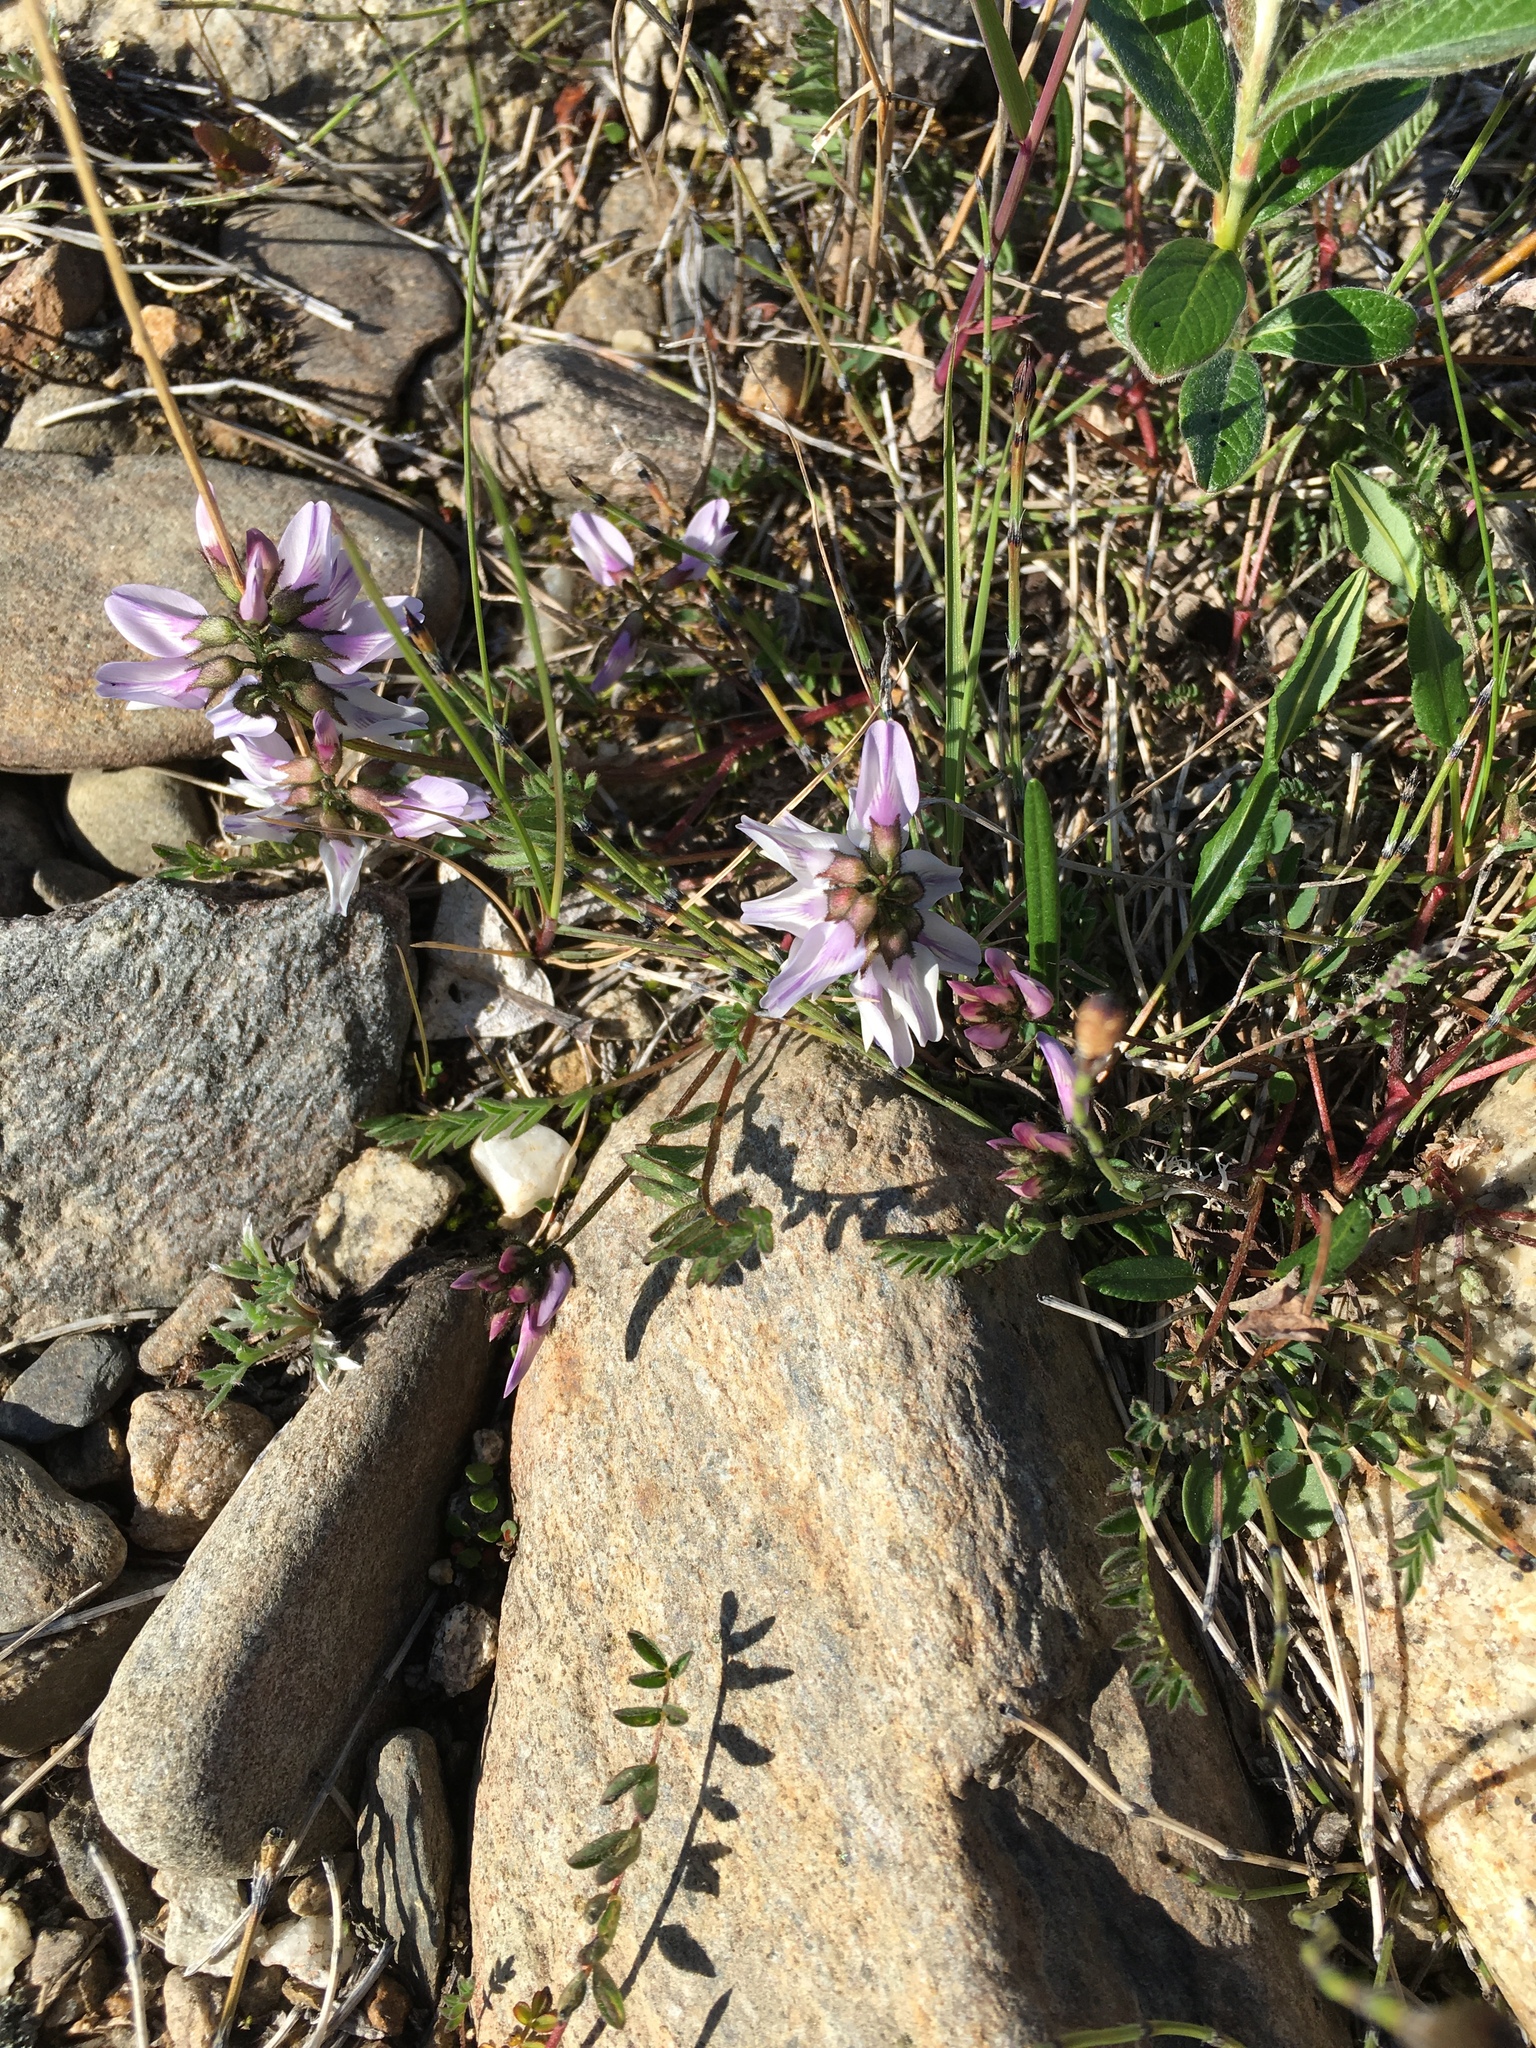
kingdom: Plantae
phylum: Tracheophyta
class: Magnoliopsida
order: Fabales
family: Fabaceae
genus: Astragalus
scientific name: Astragalus alpinus
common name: Alpine milk-vetch
